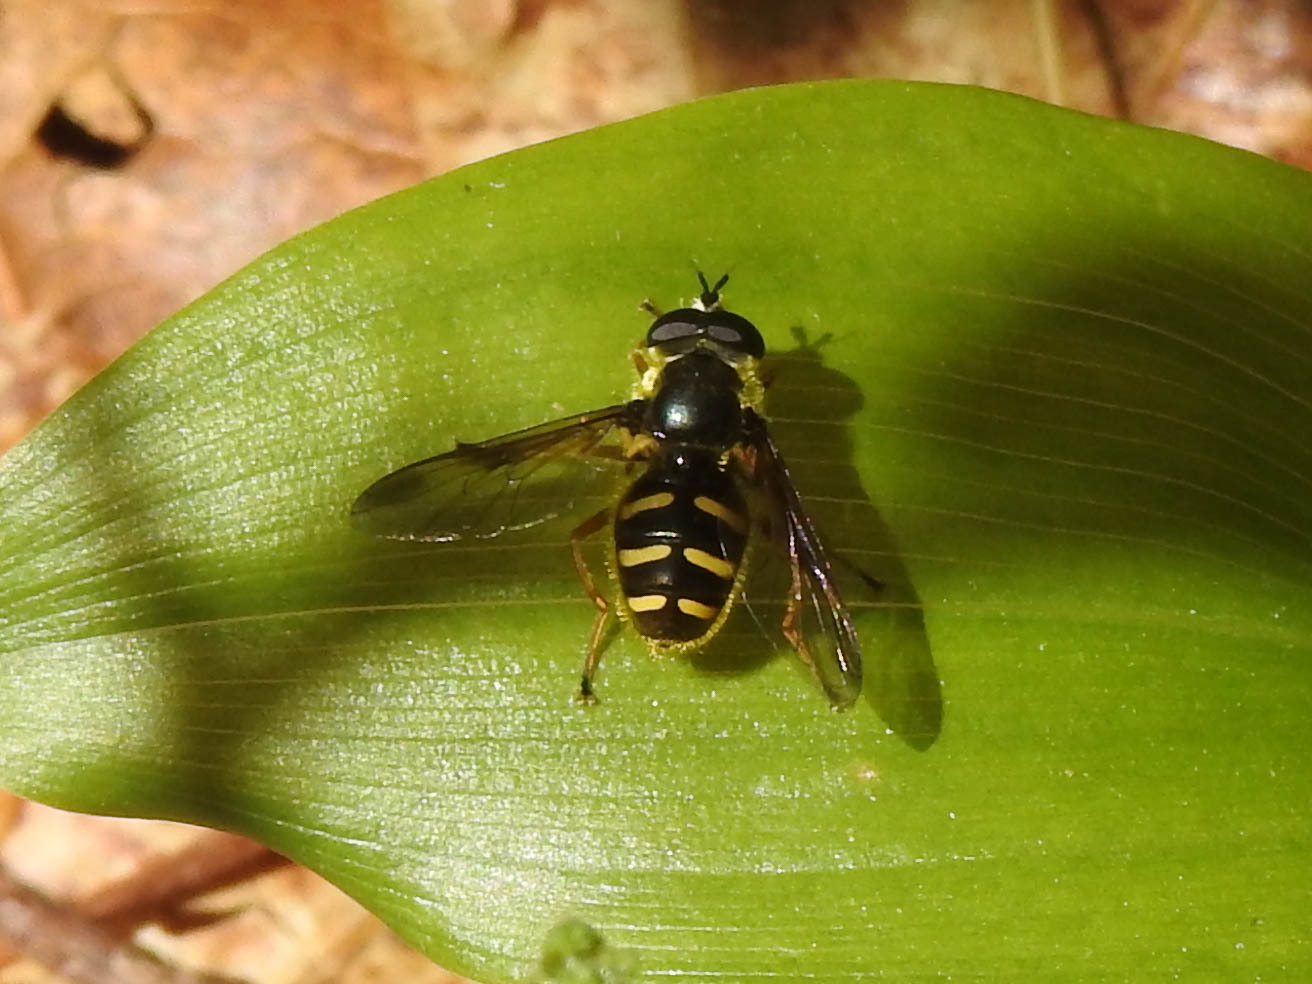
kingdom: Animalia
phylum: Arthropoda
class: Insecta
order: Diptera
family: Syrphidae
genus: Sericomyia
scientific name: Sericomyia chrysotoxoides
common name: Oblique-banded pond fly
